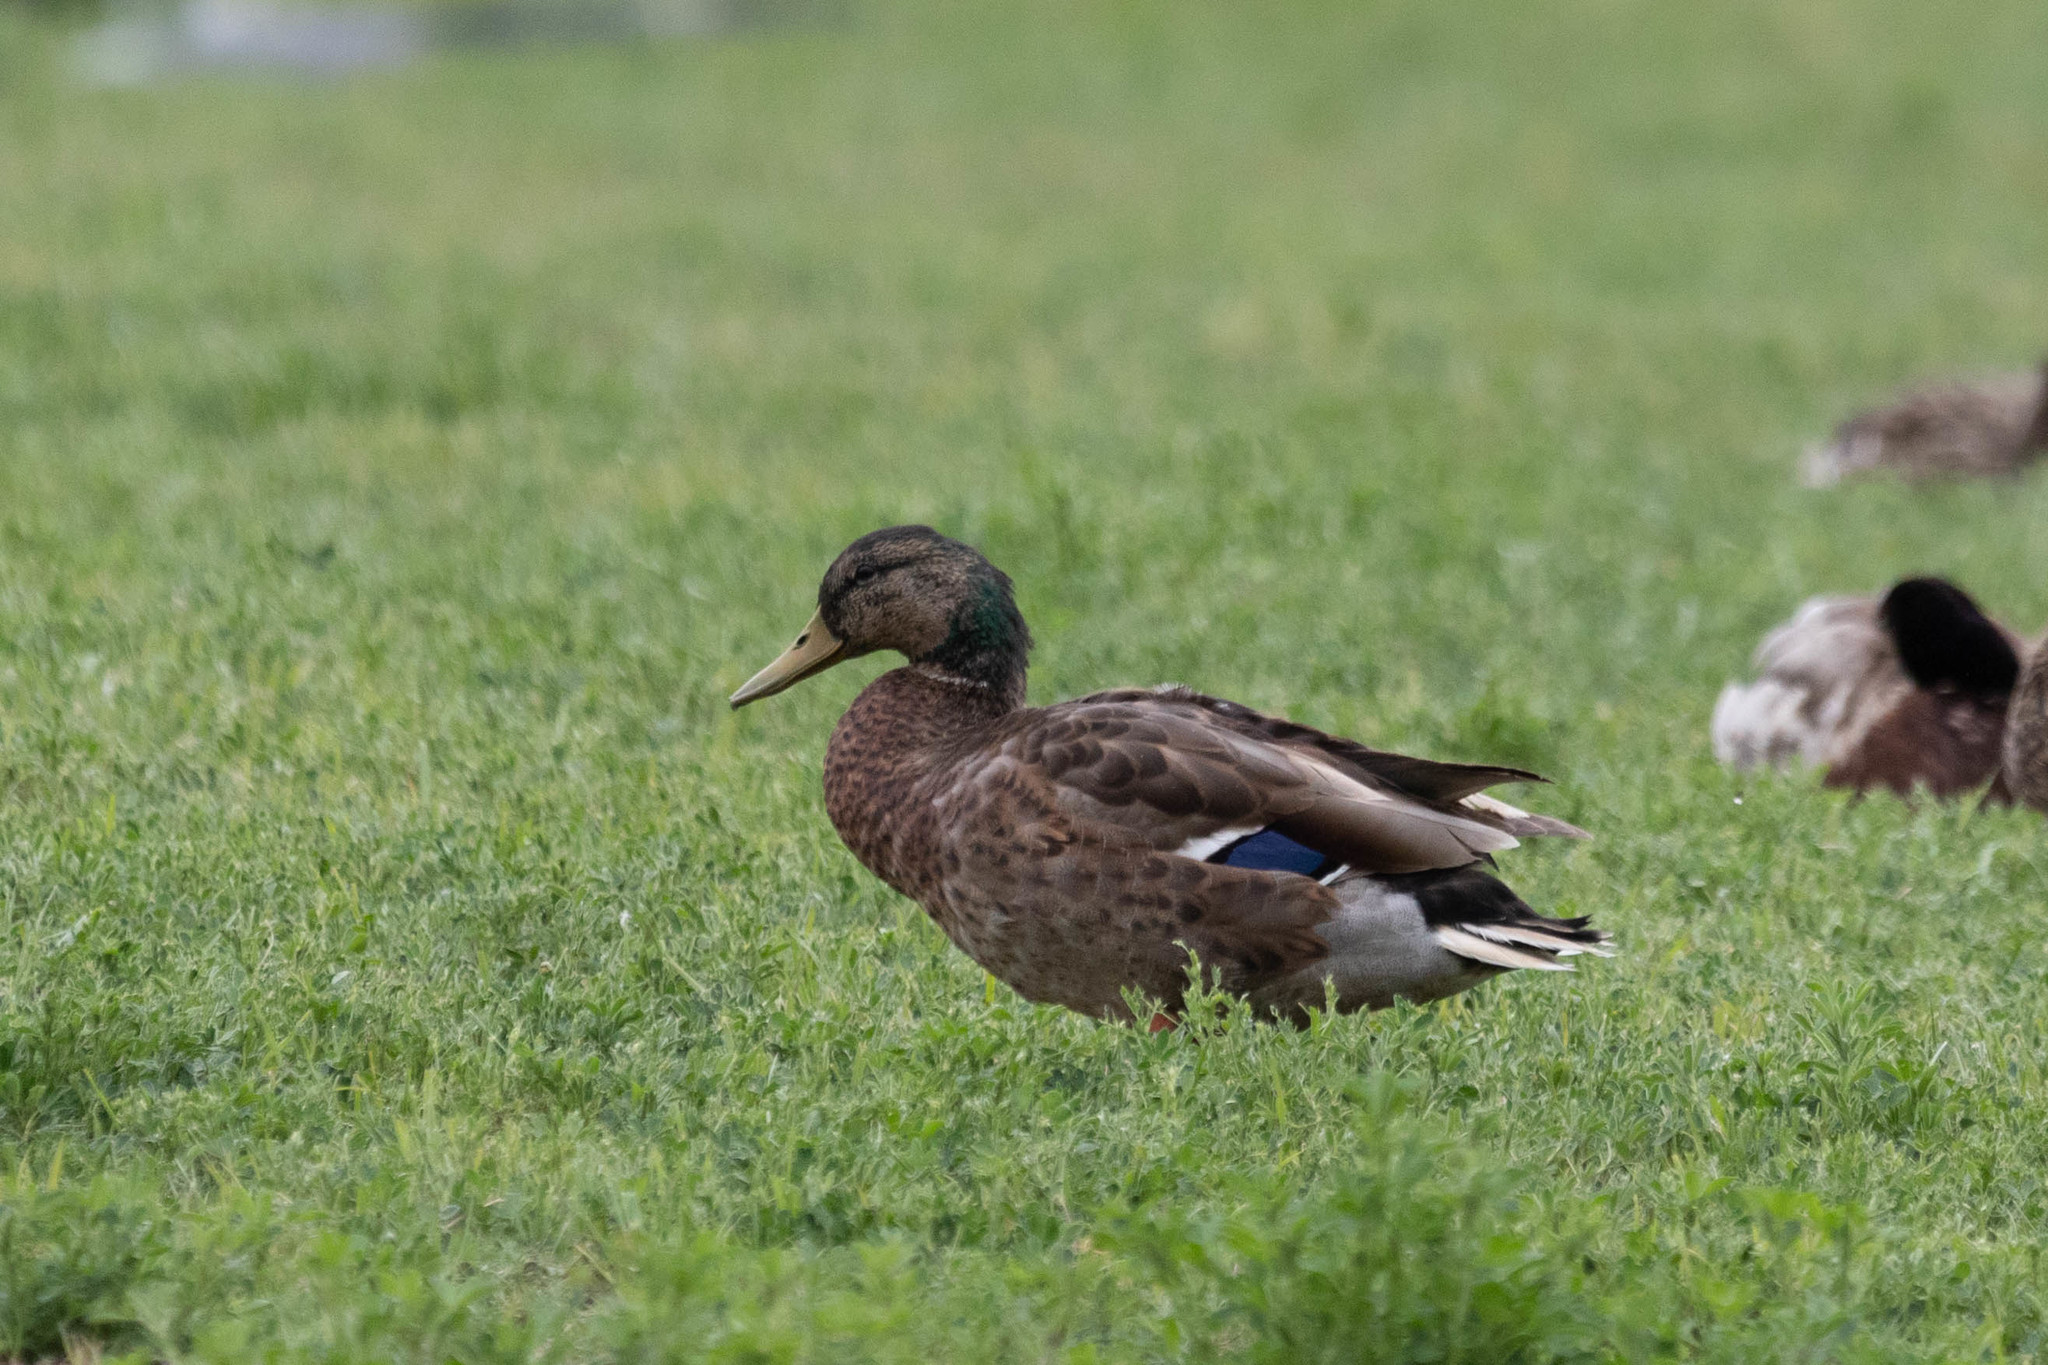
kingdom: Animalia
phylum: Chordata
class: Aves
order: Anseriformes
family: Anatidae
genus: Anas
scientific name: Anas platyrhynchos
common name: Mallard
